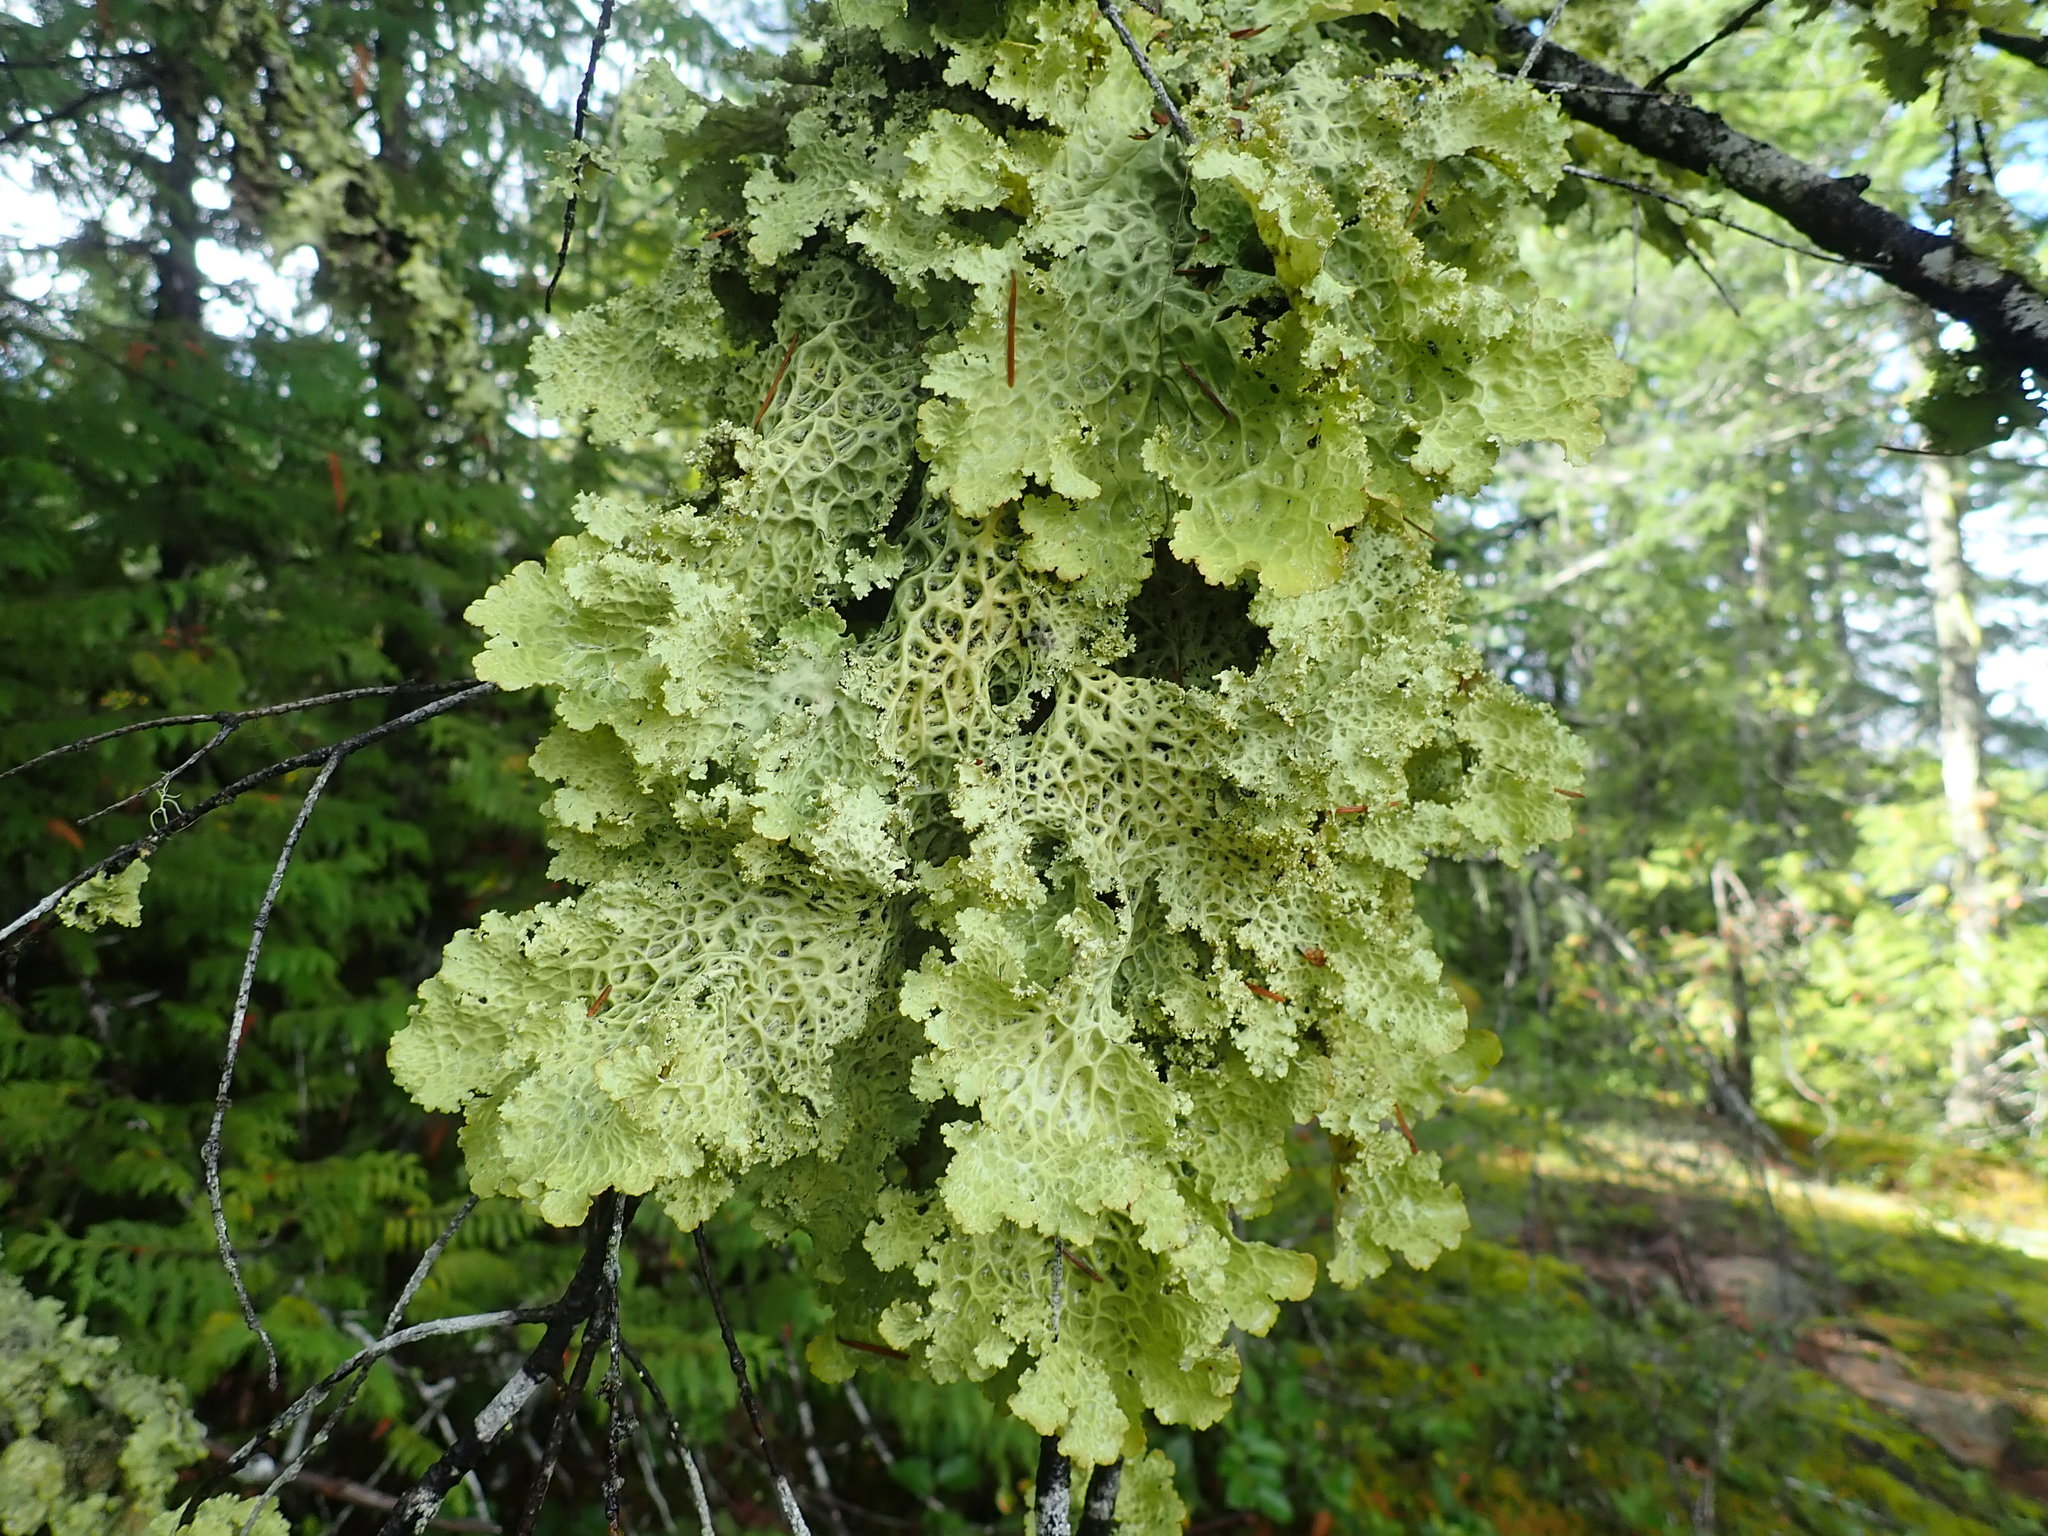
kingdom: Fungi
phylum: Ascomycota
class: Lecanoromycetes
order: Peltigerales
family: Lobariaceae
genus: Lobaria
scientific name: Lobaria oregana
